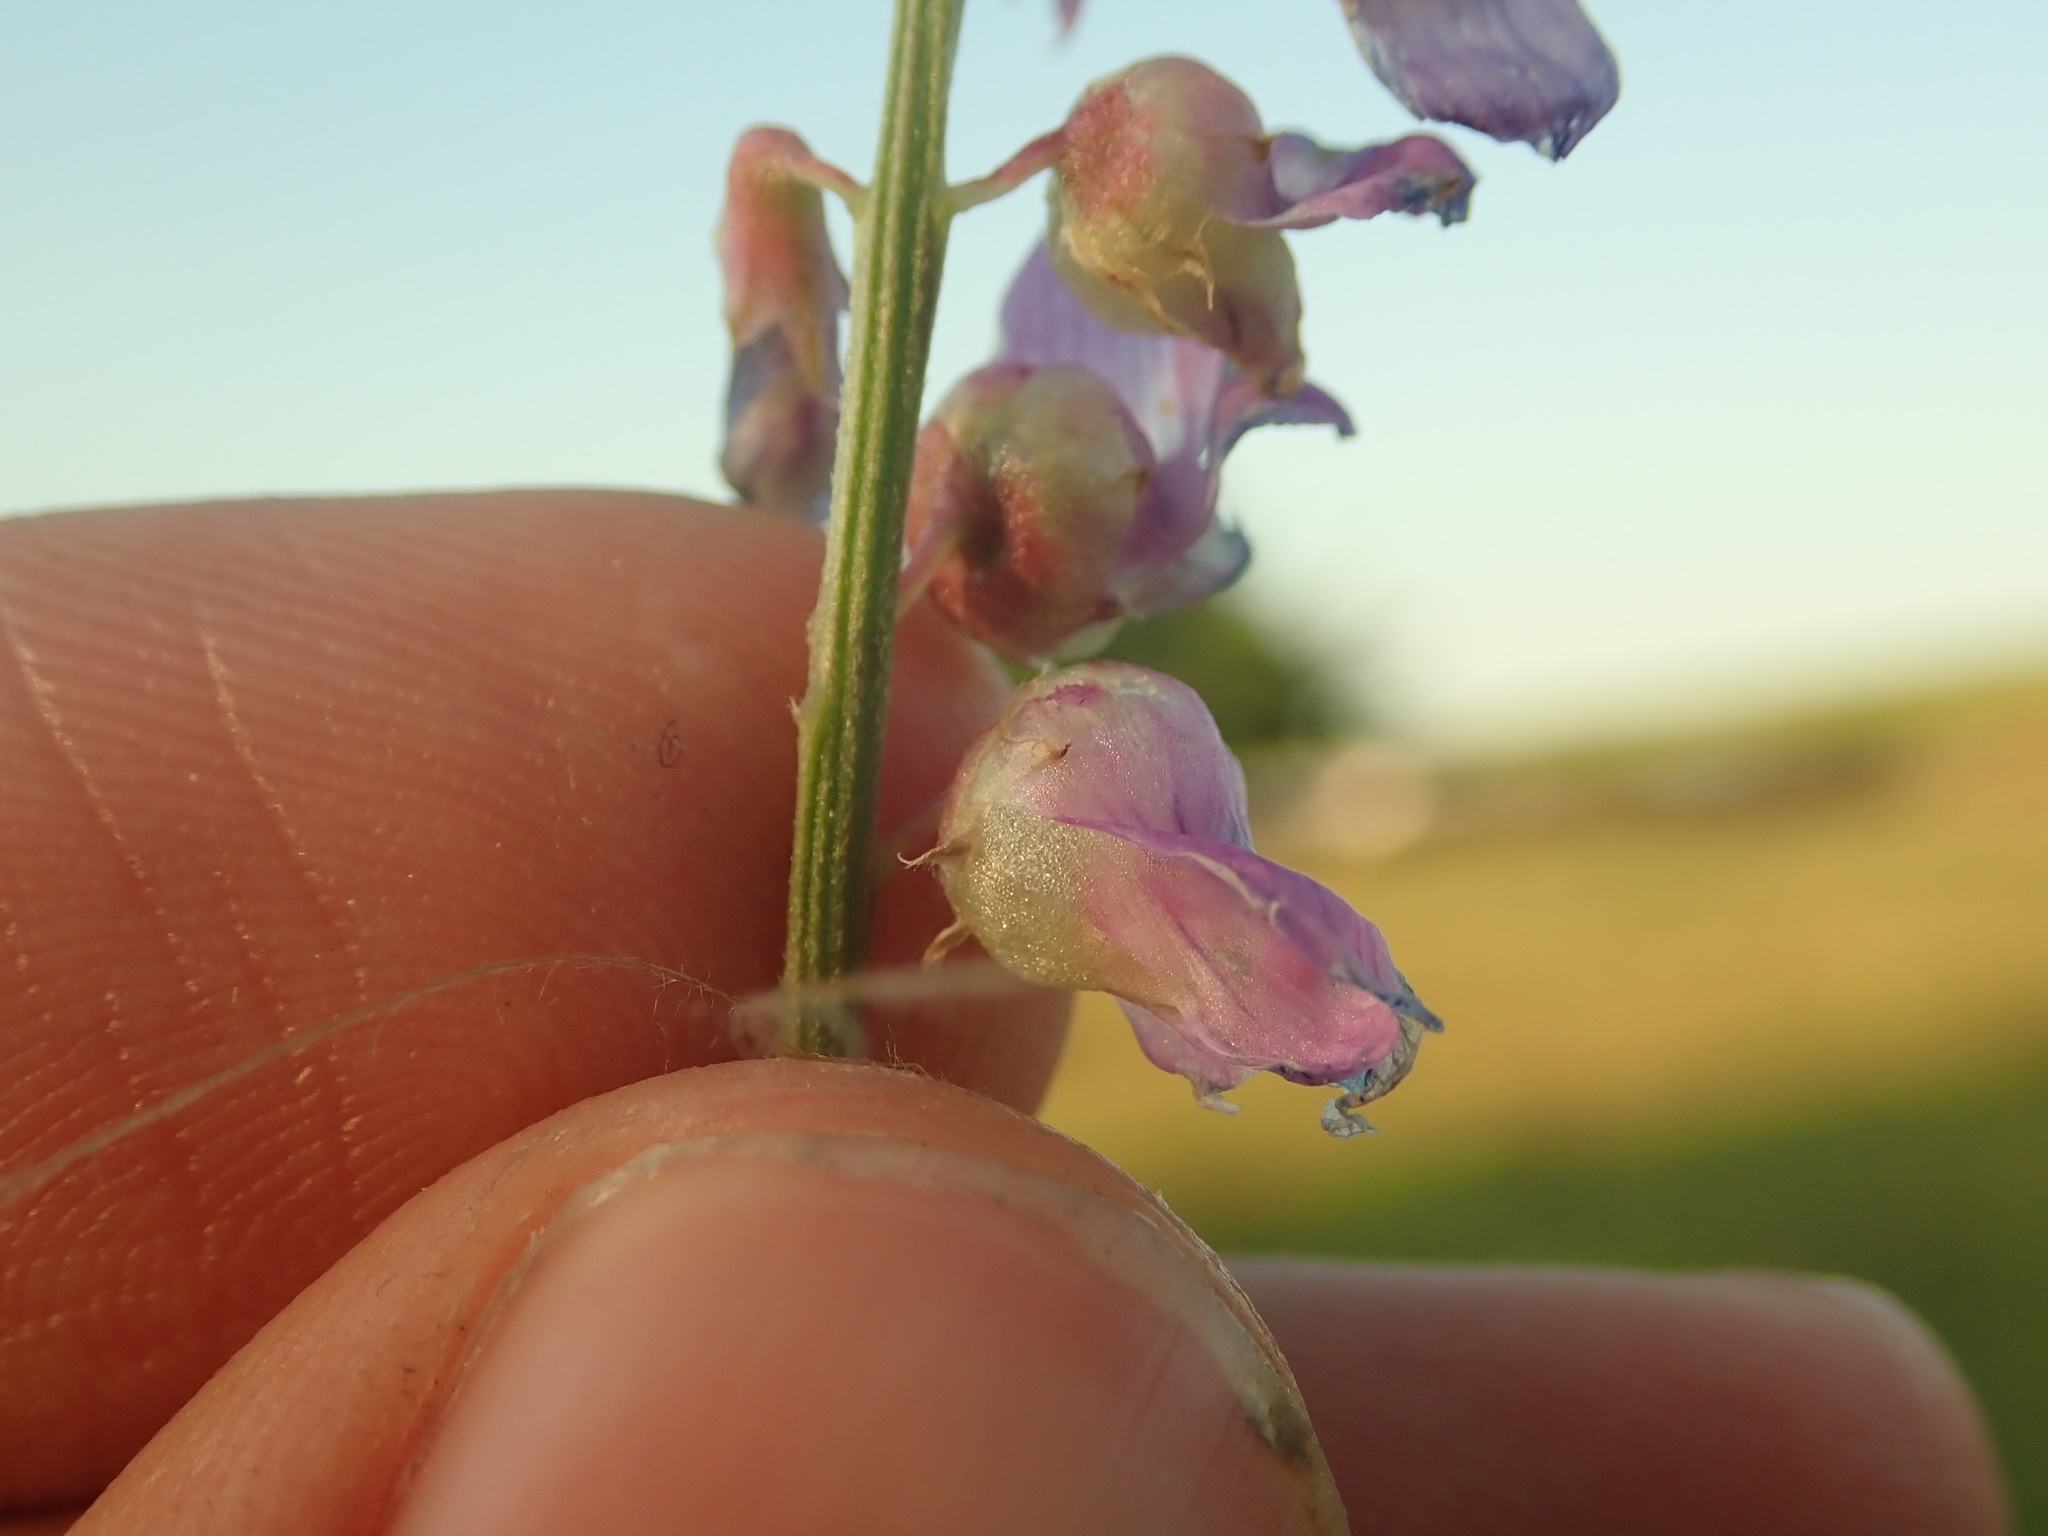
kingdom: Animalia
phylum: Arthropoda
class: Insecta
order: Diptera
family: Cecidomyiidae
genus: Contarinia
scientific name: Contarinia craccae
